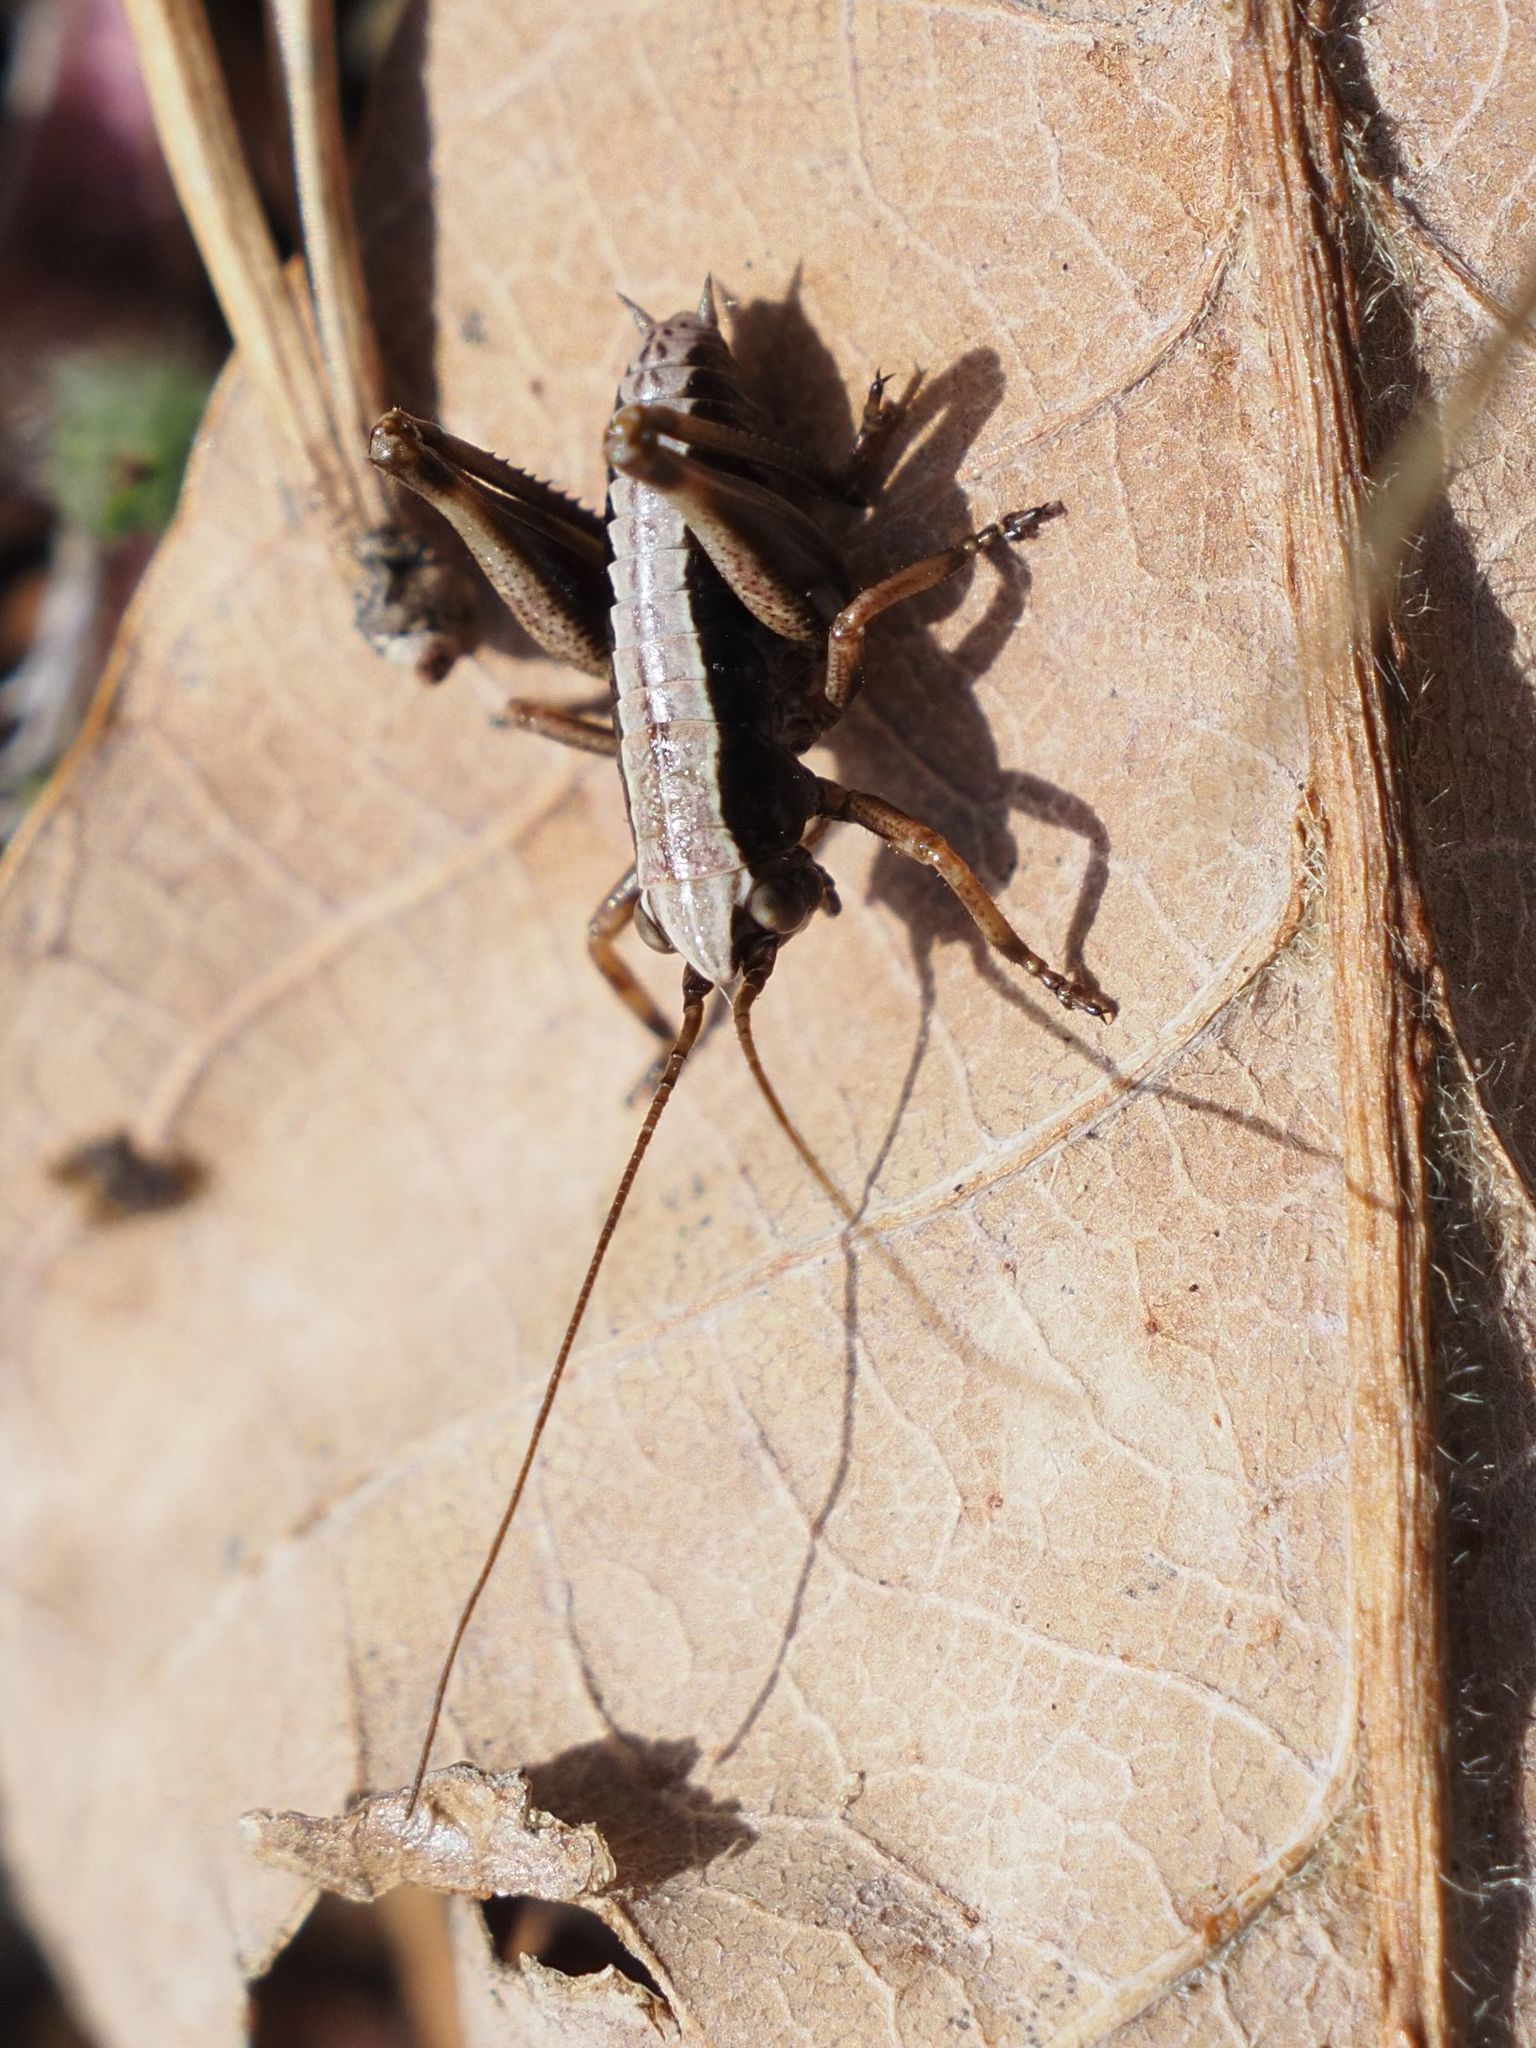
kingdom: Animalia
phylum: Arthropoda
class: Insecta
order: Orthoptera
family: Tettigoniidae
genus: Pholidoptera
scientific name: Pholidoptera griseoaptera
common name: Dark bush-cricket
